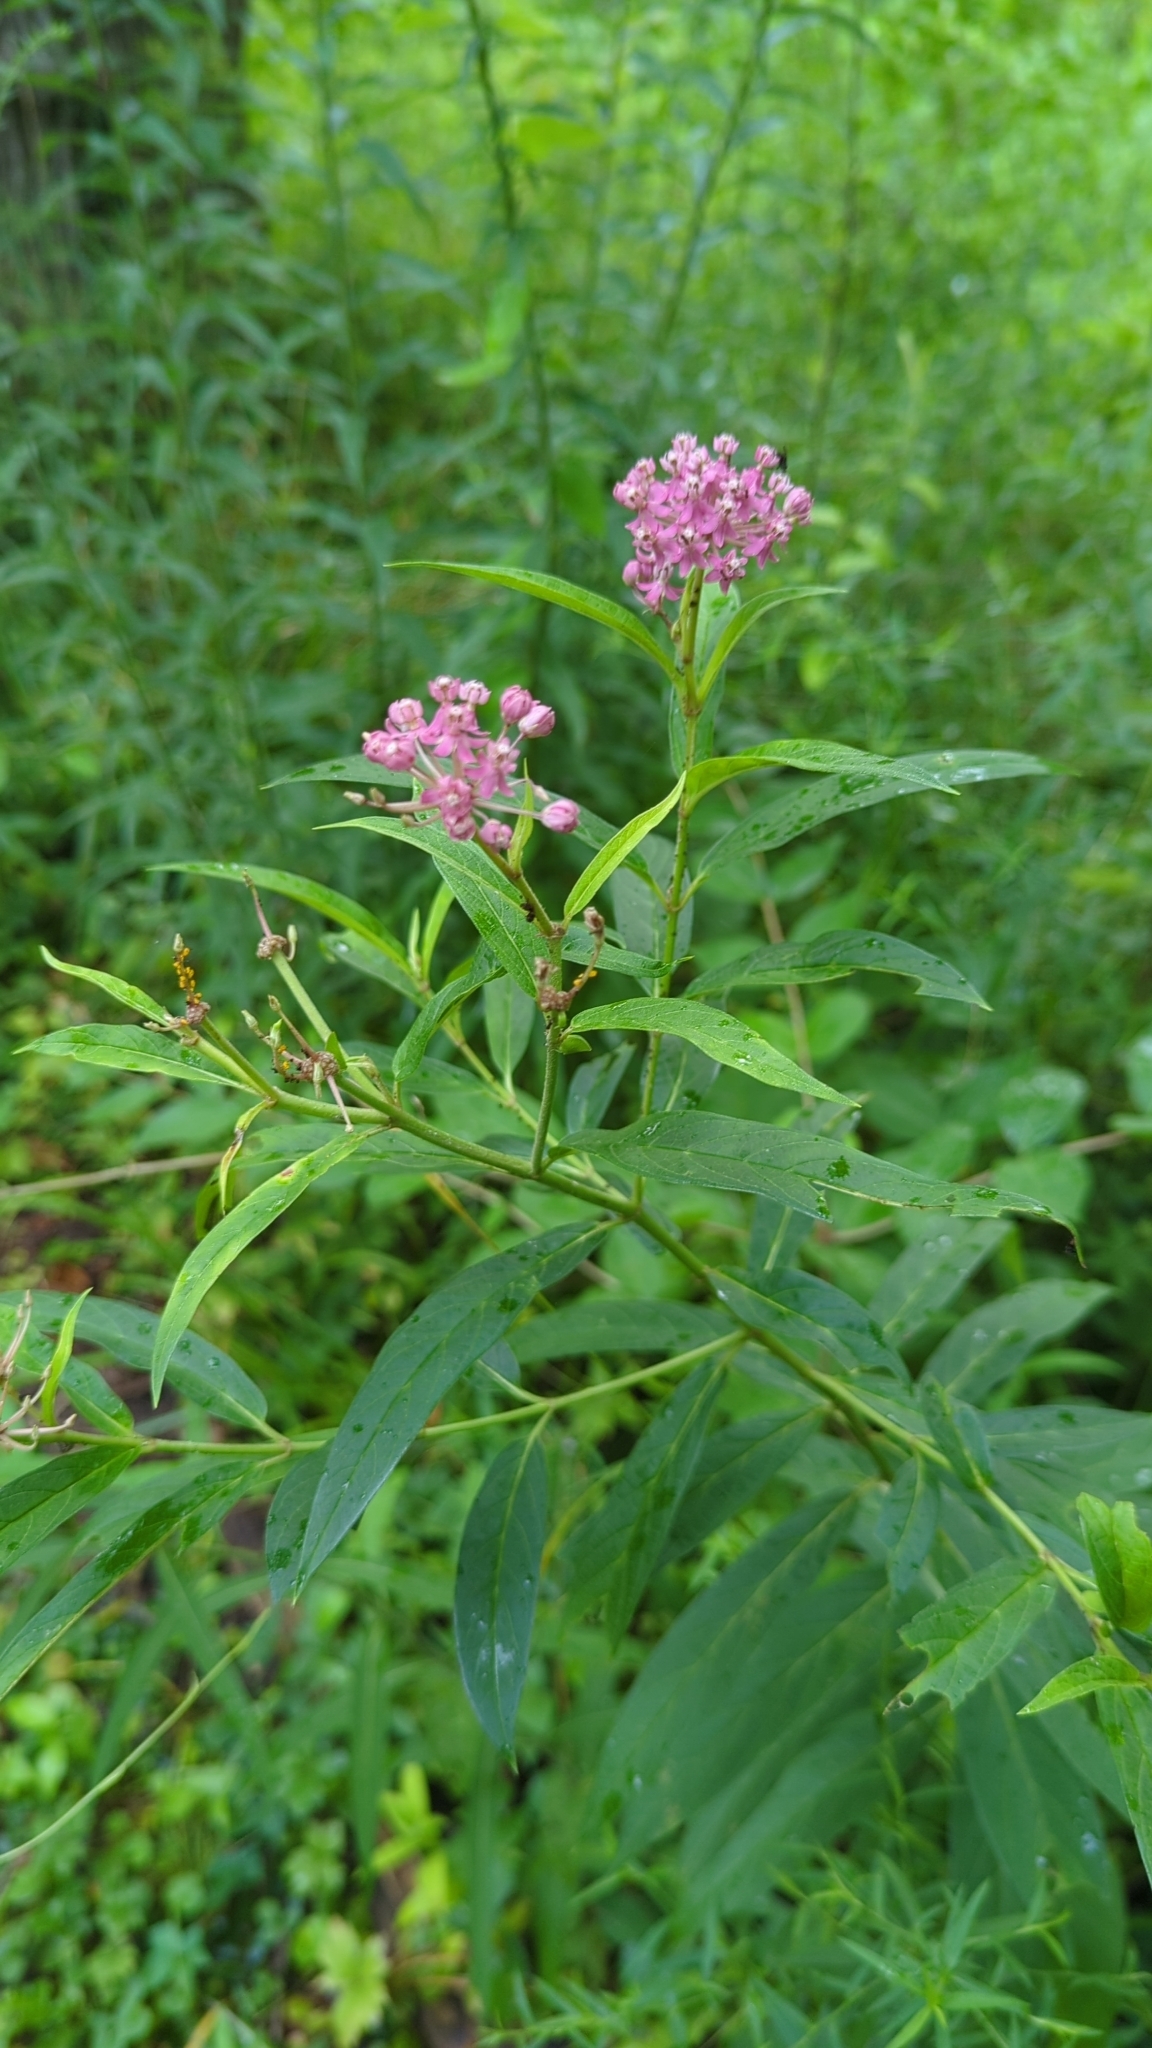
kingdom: Plantae
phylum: Tracheophyta
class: Magnoliopsida
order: Gentianales
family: Apocynaceae
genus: Asclepias
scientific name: Asclepias incarnata
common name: Swamp milkweed
